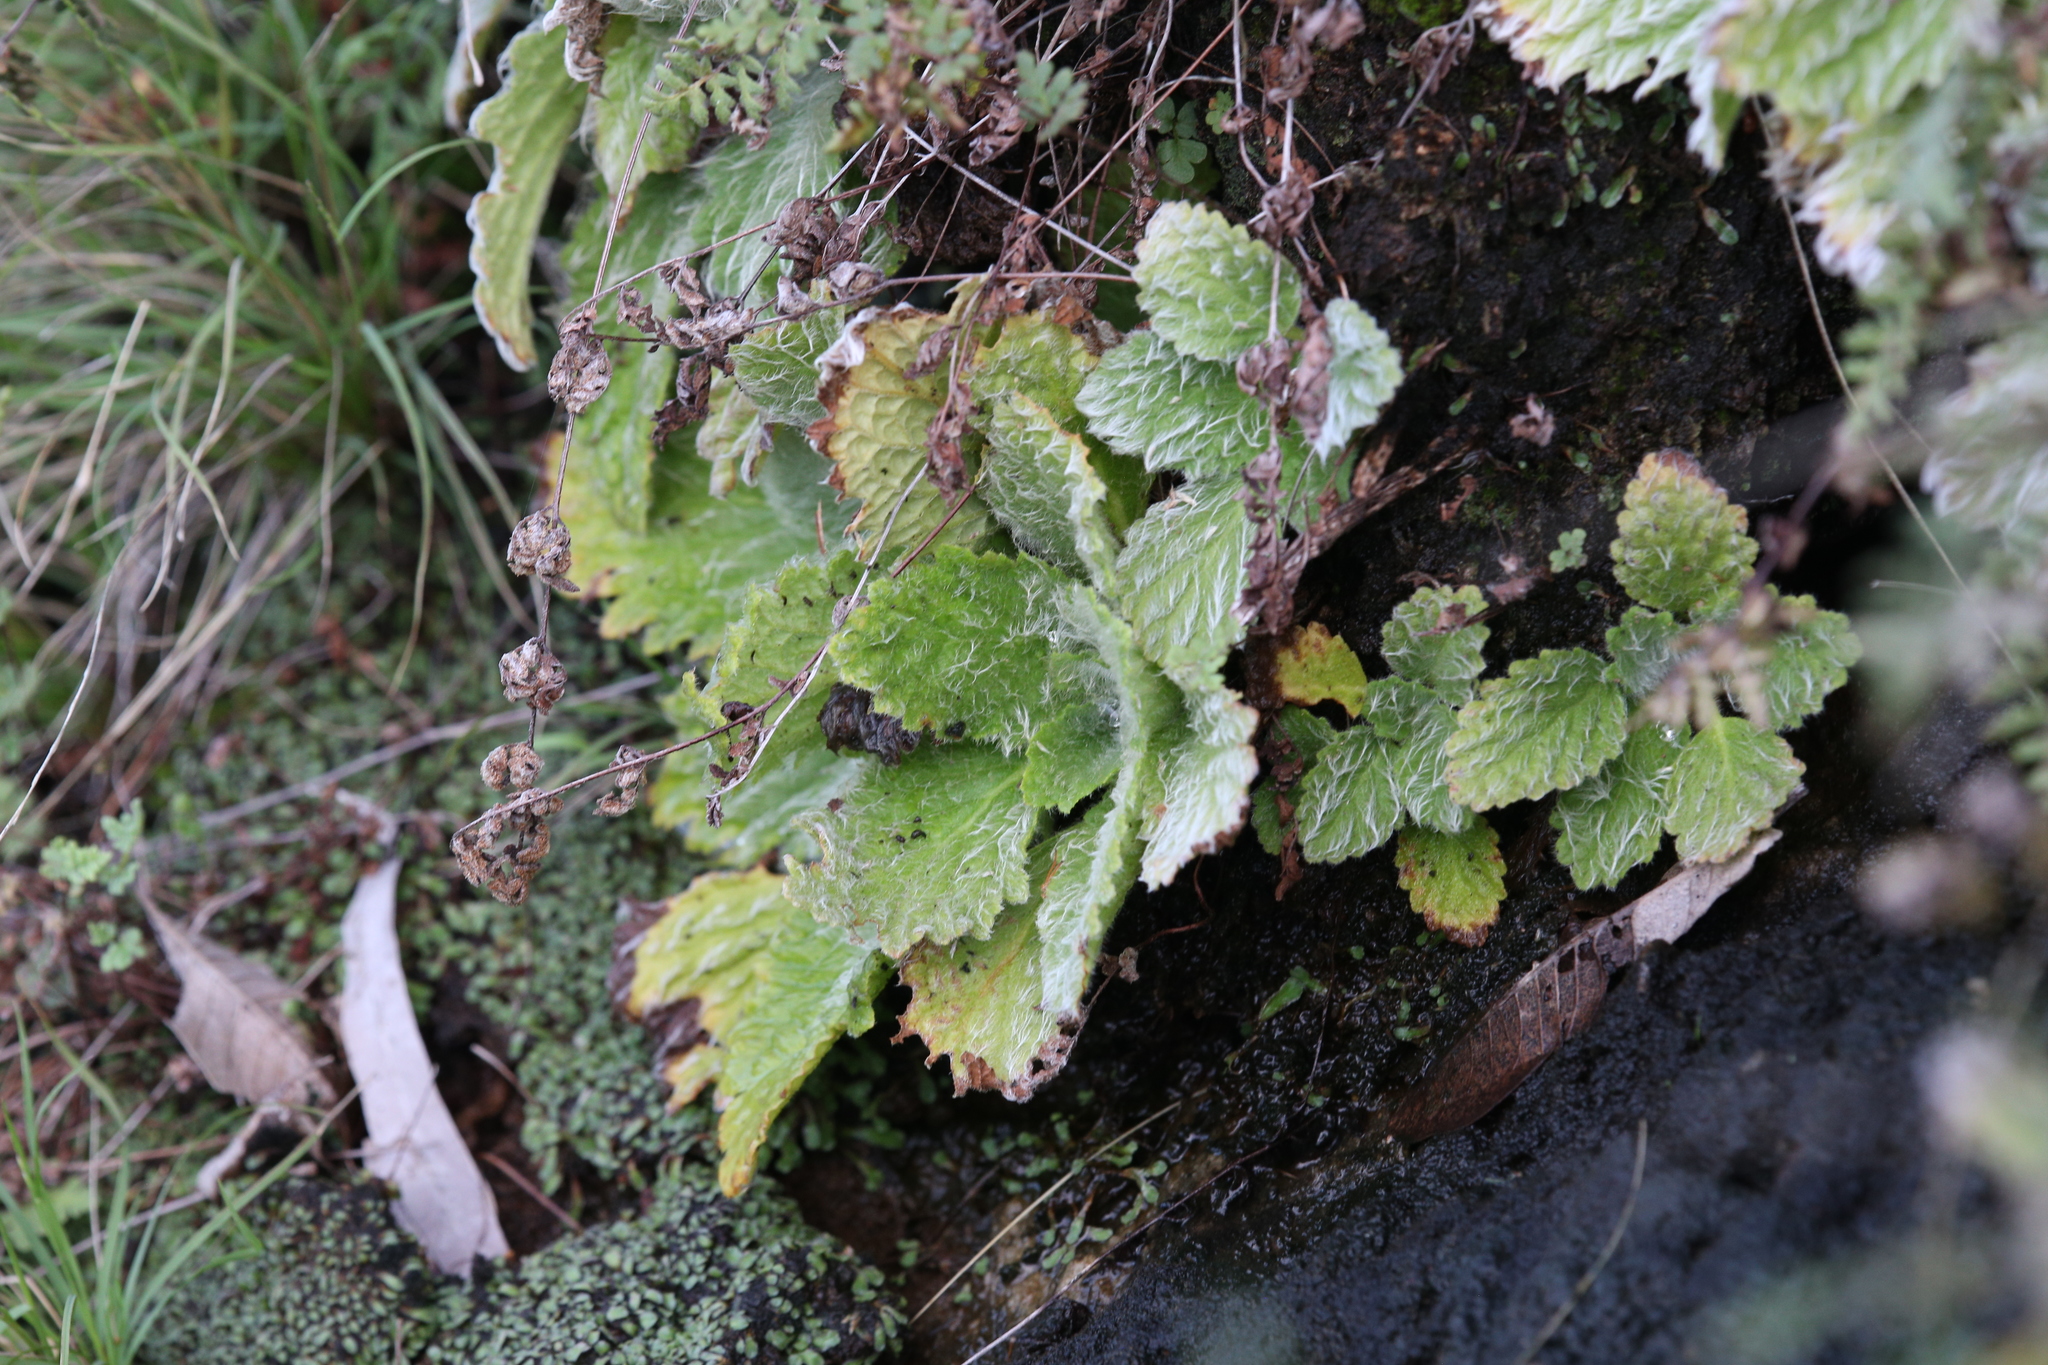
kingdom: Plantae
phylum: Tracheophyta
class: Magnoliopsida
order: Lamiales
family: Gesneriaceae
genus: Boea
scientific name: Boea hygroscopica
